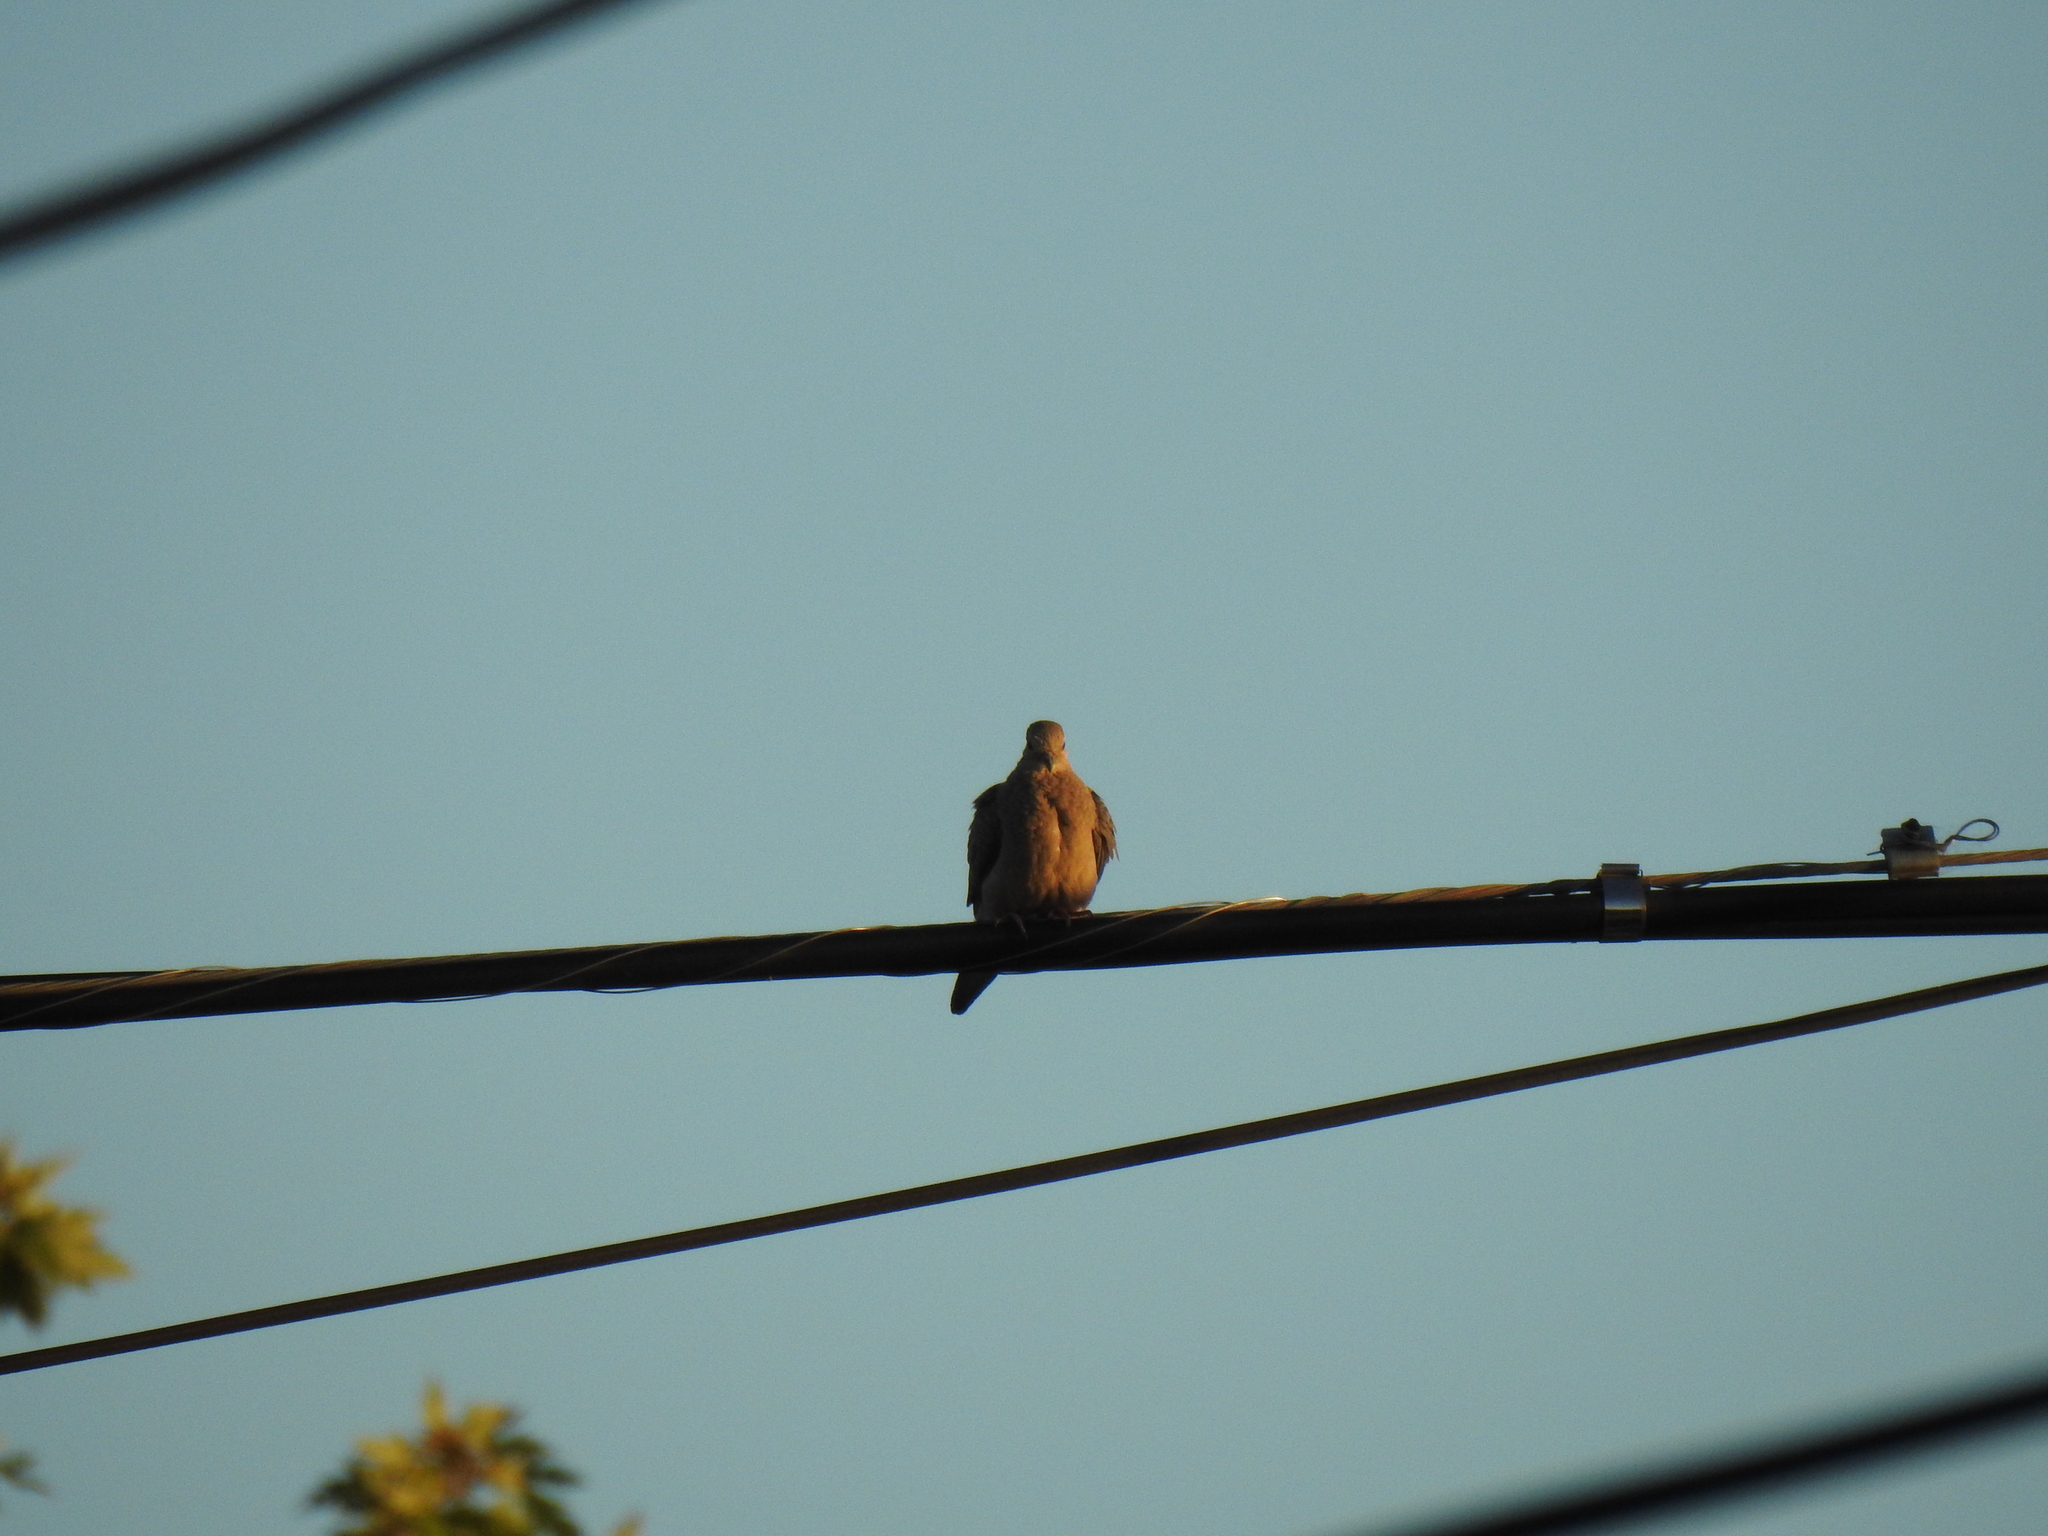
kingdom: Animalia
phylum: Chordata
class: Aves
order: Columbiformes
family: Columbidae
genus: Zenaida
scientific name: Zenaida macroura
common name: Mourning dove
